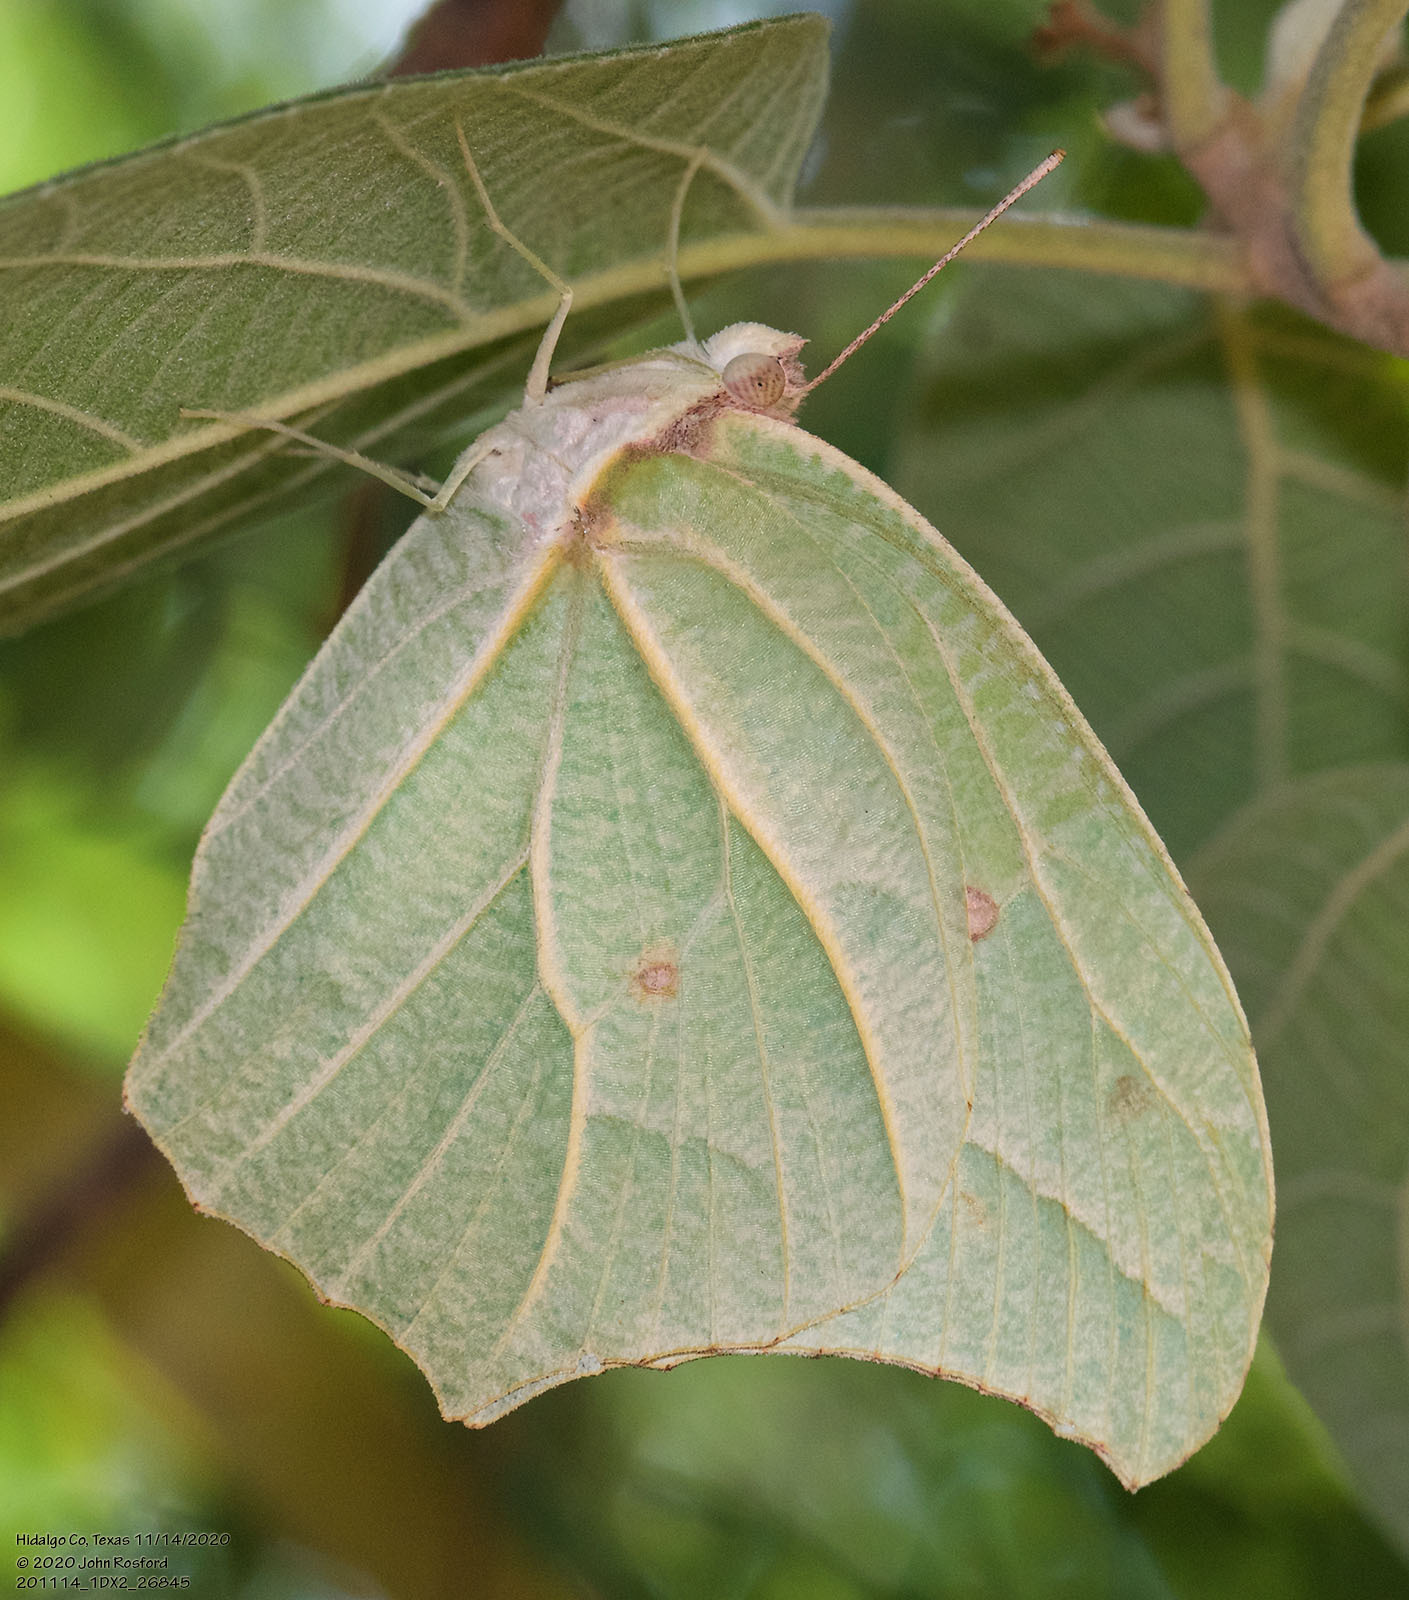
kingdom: Animalia
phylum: Arthropoda
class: Insecta
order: Lepidoptera
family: Pieridae
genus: Anteos
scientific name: Anteos clorinde
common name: White angled sulphur
